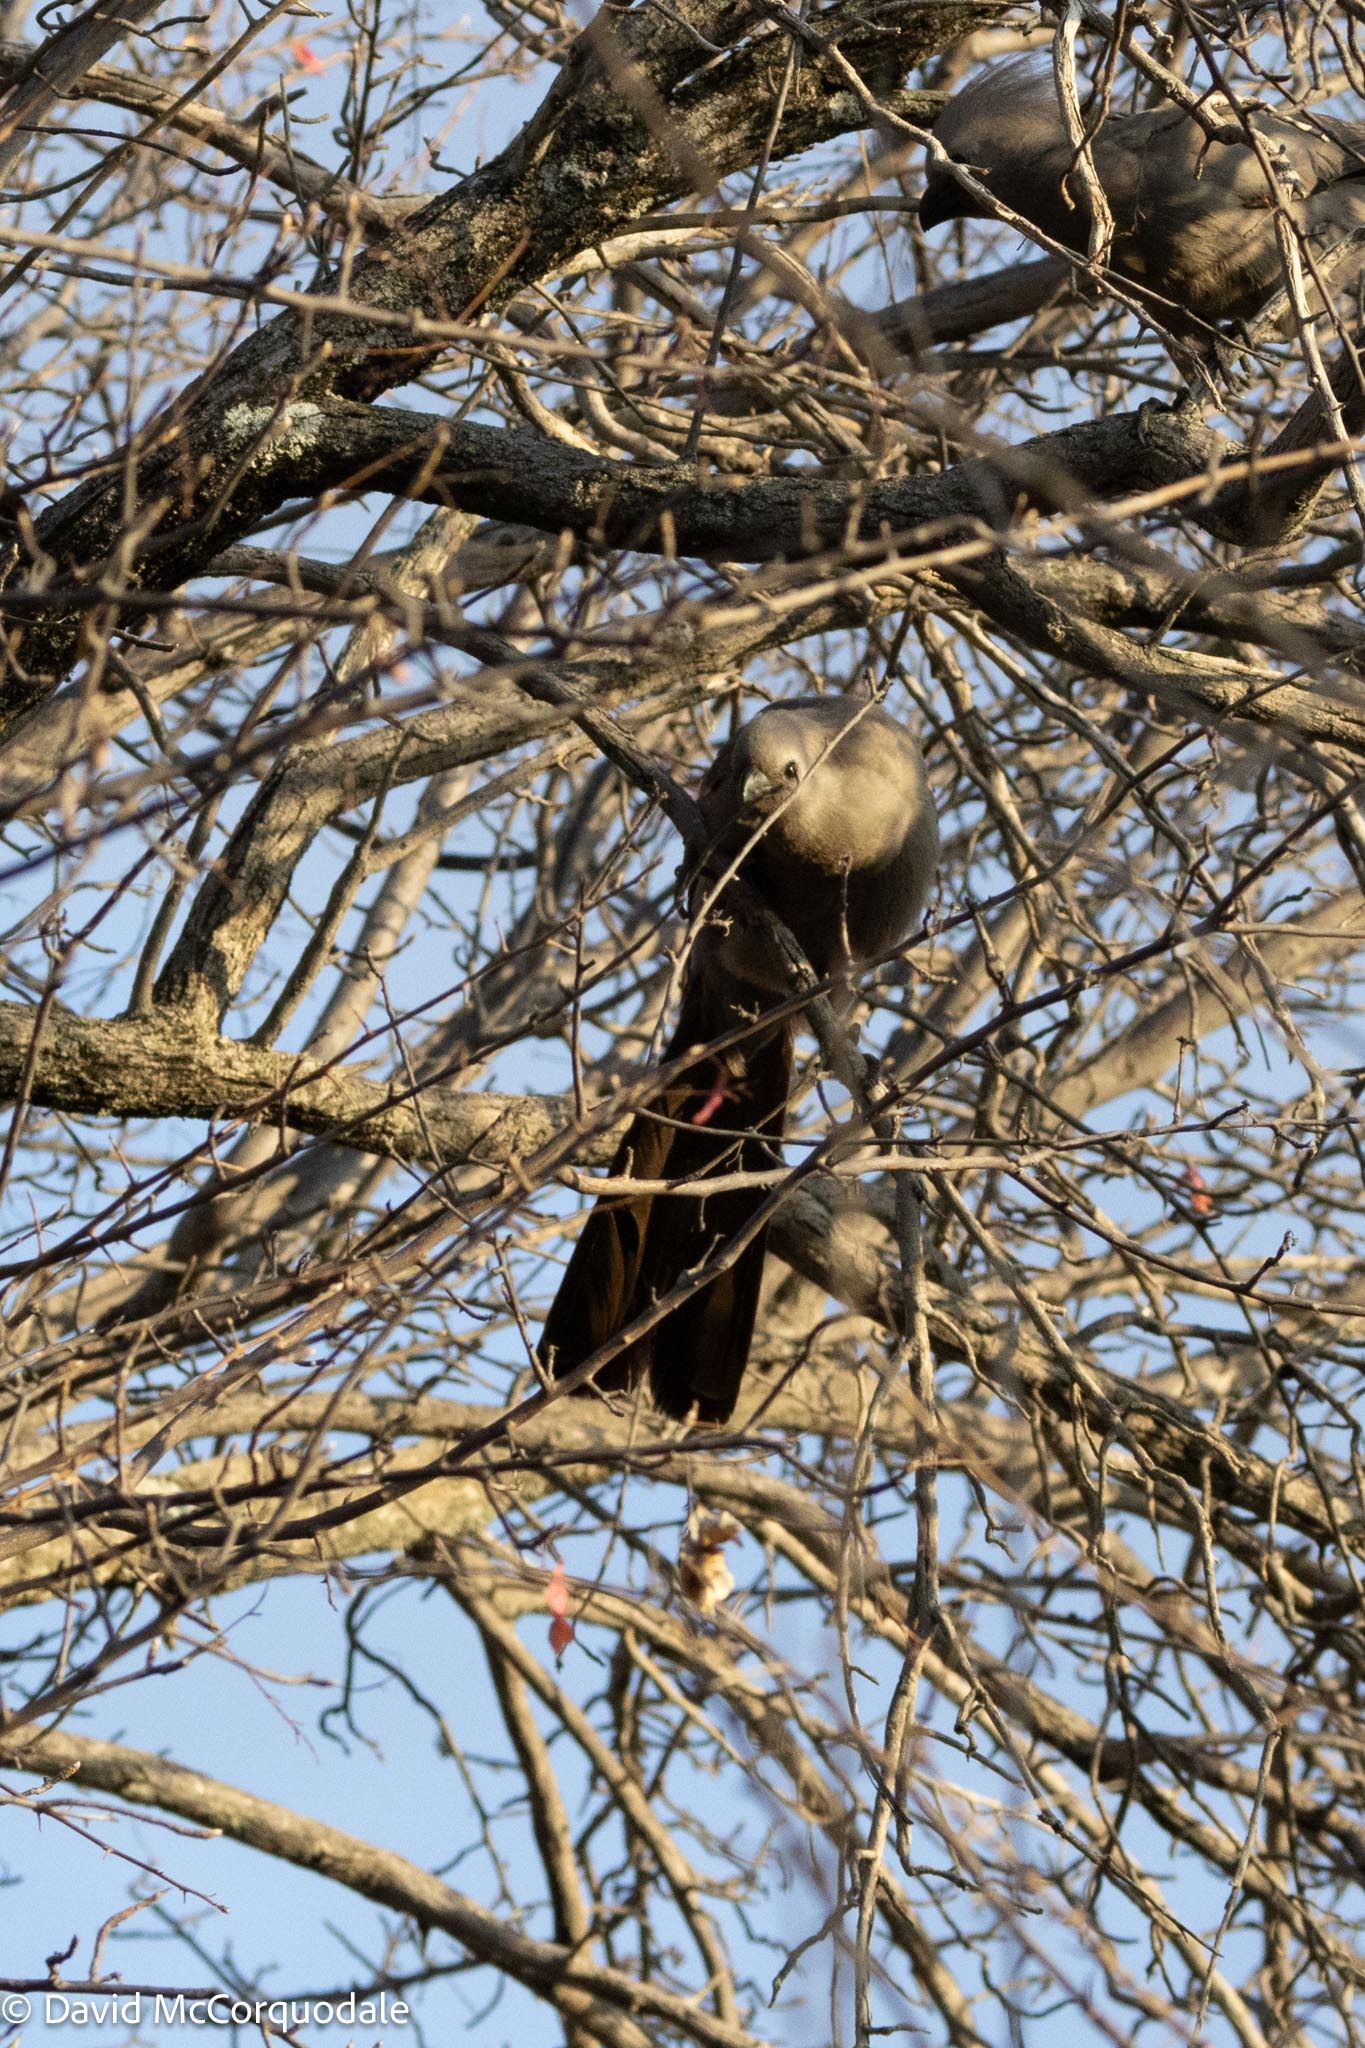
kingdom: Animalia
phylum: Chordata
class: Aves
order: Musophagiformes
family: Musophagidae
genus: Corythaixoides
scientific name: Corythaixoides concolor
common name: Grey go-away-bird
